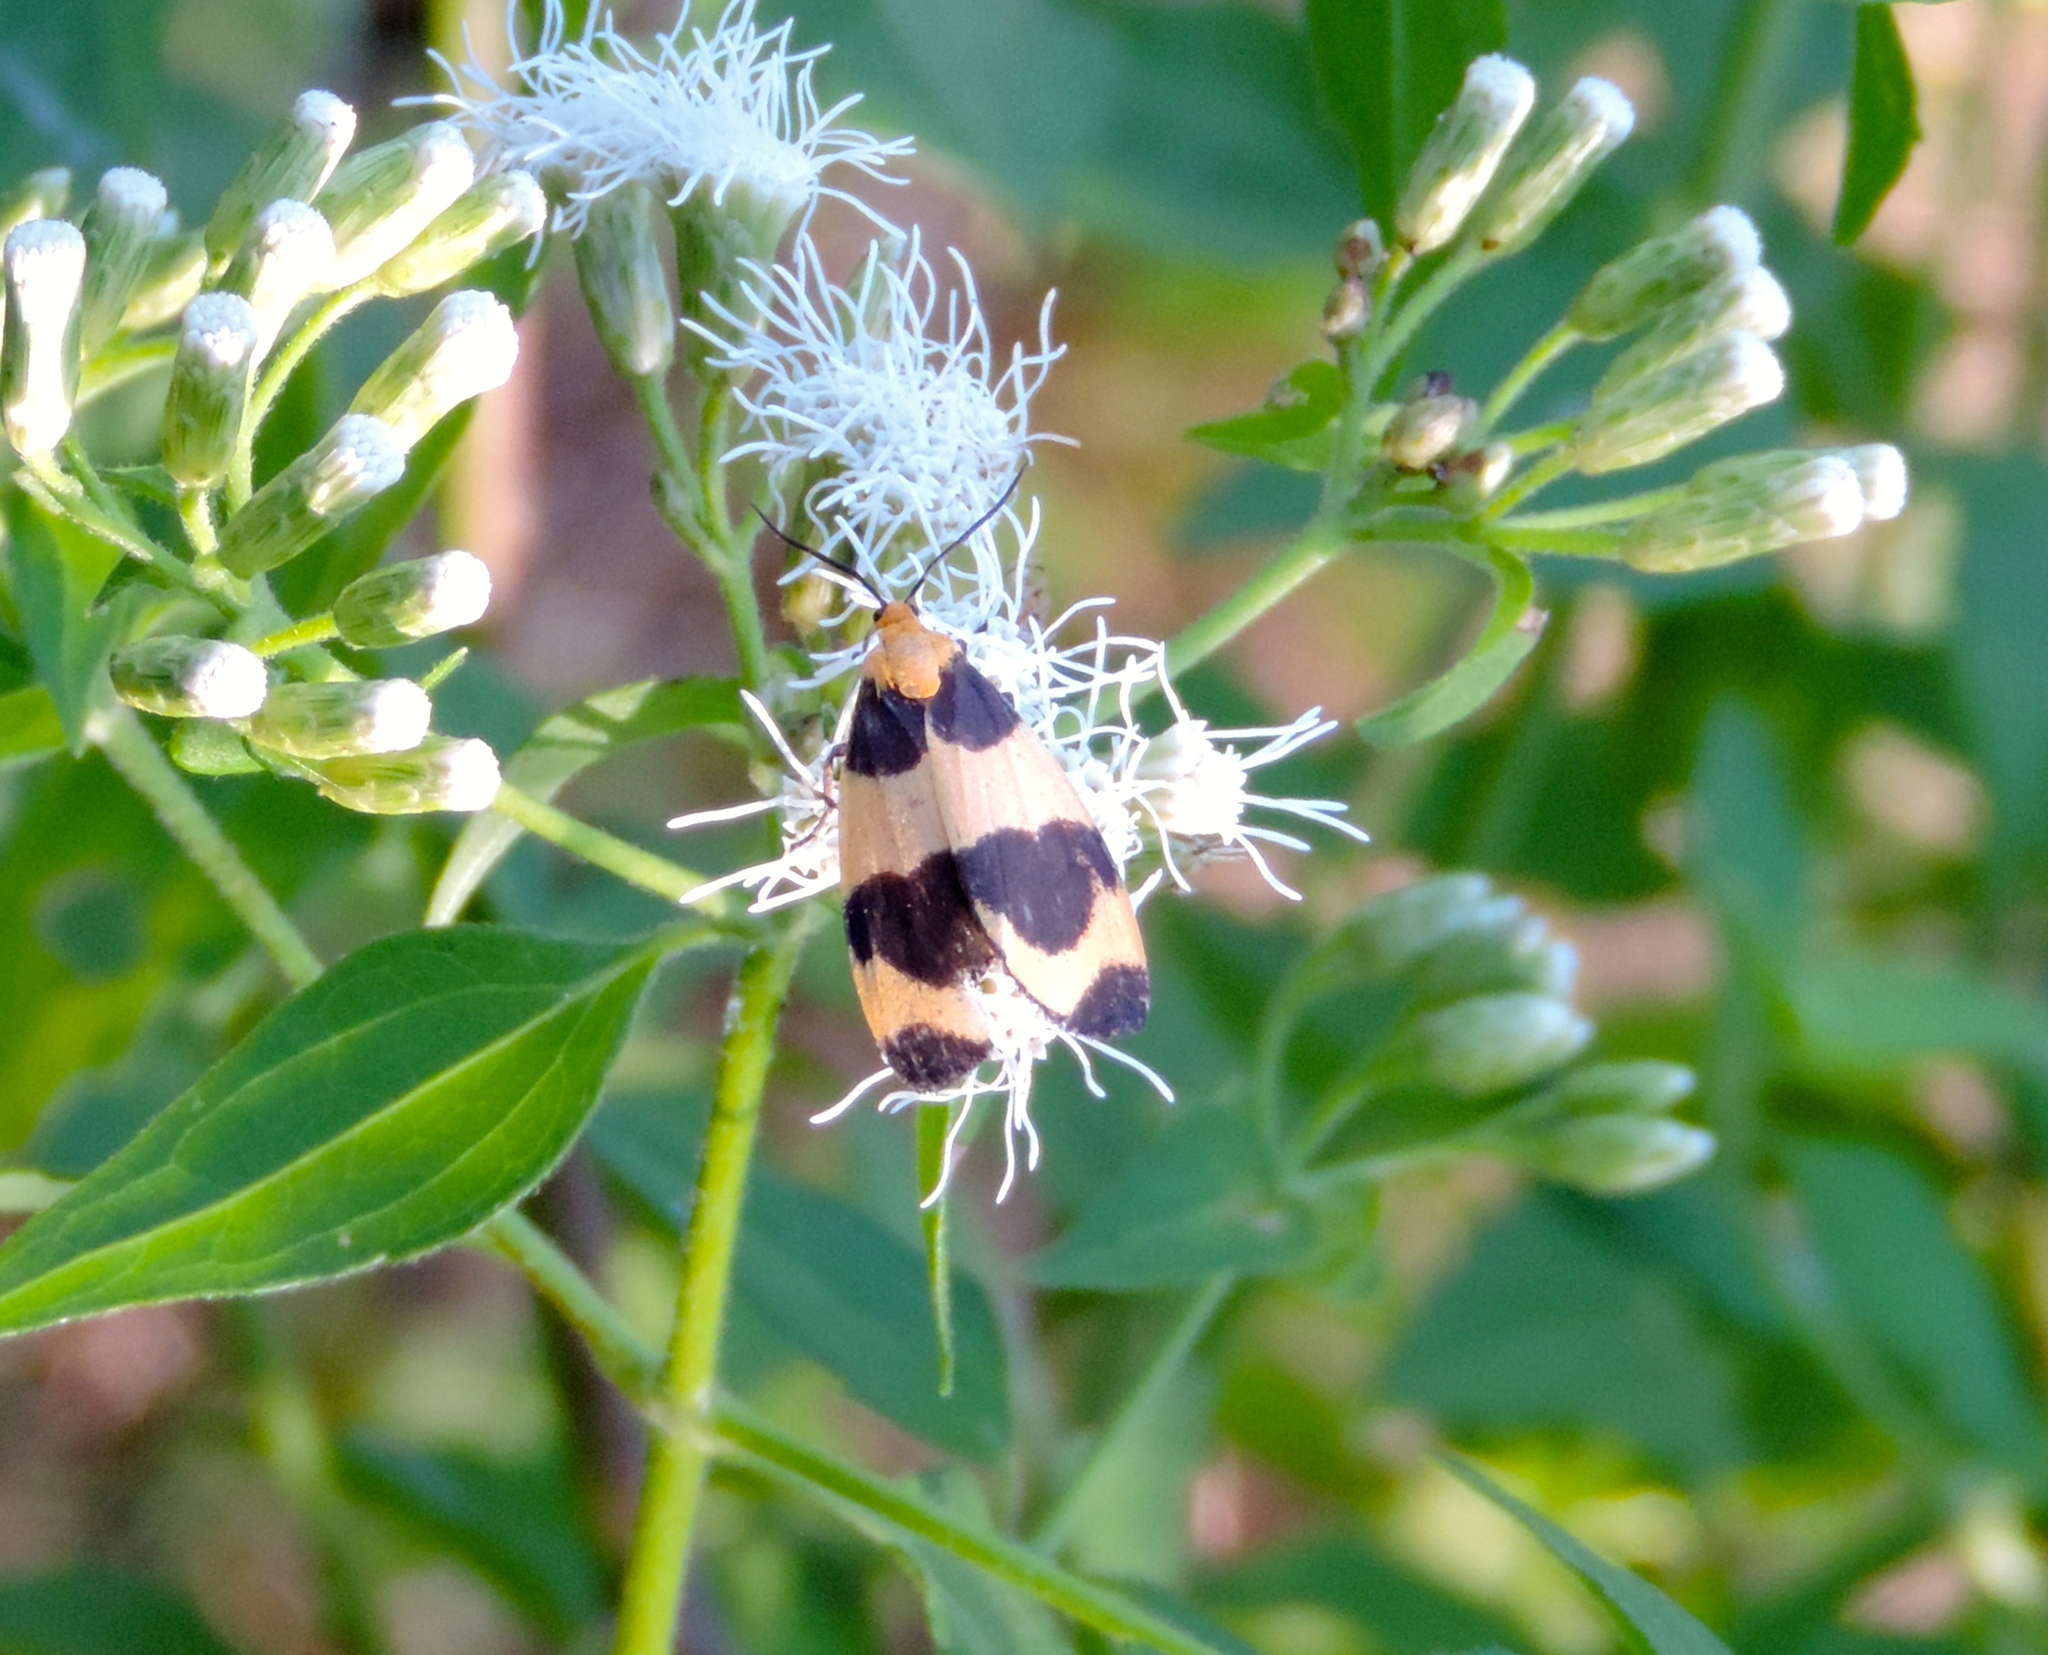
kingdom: Animalia
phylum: Arthropoda
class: Insecta
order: Lepidoptera
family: Erebidae
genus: Eudesmia
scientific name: Eudesmia menea
